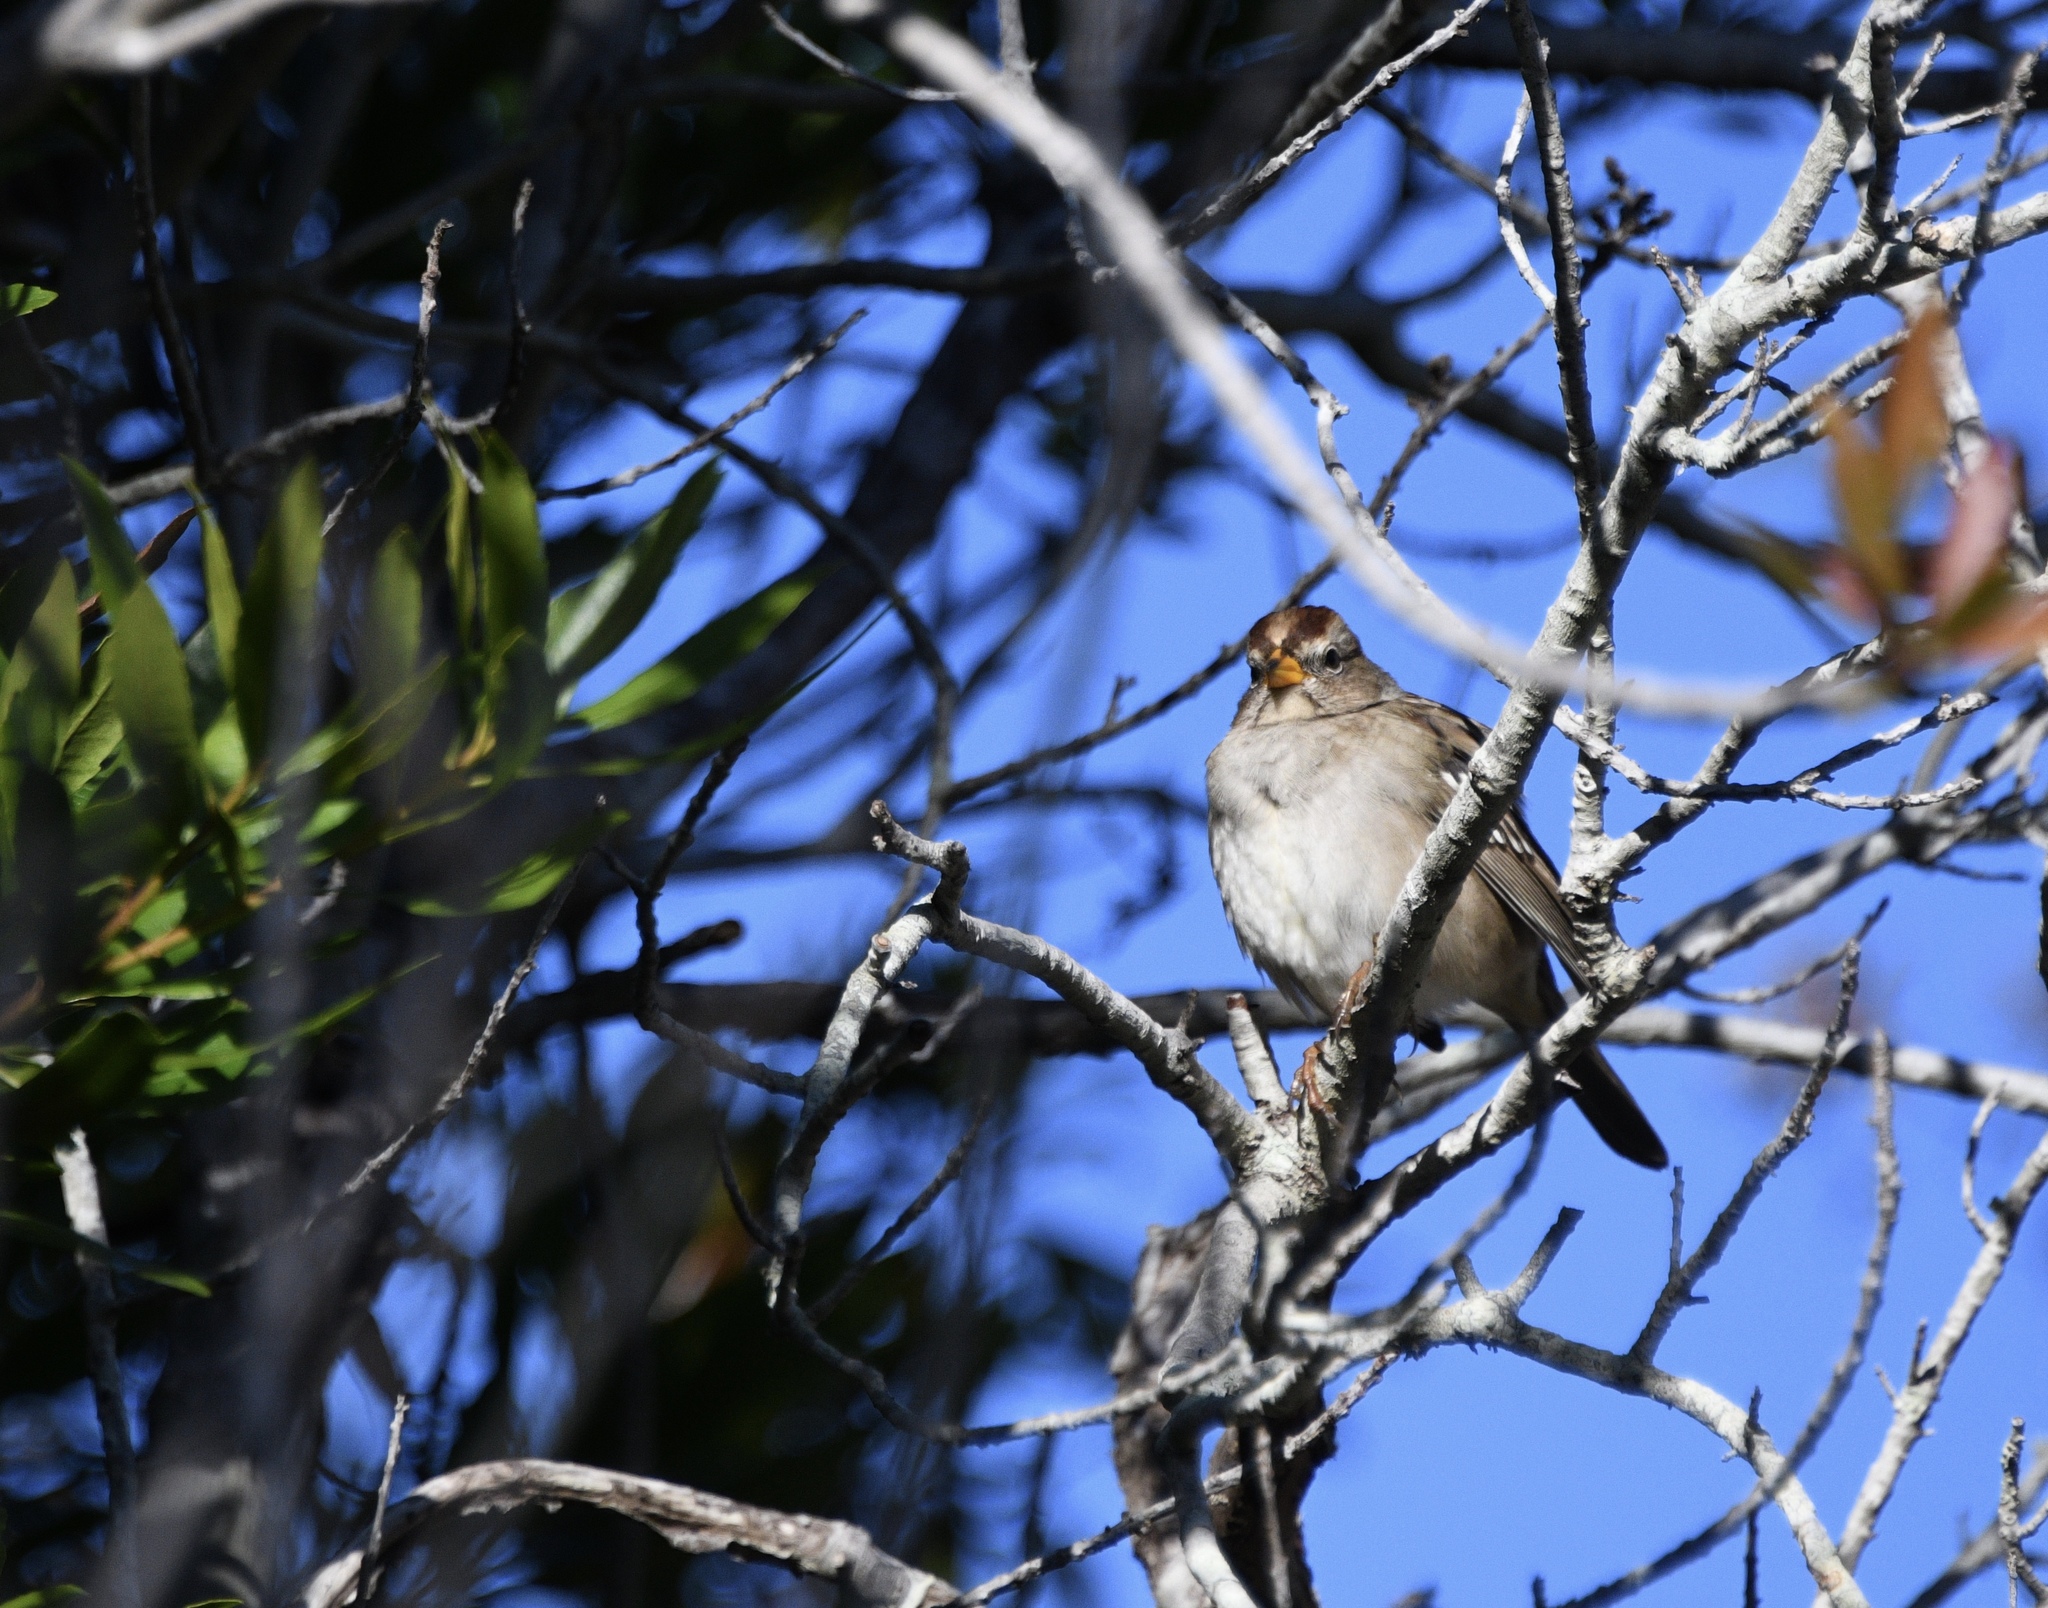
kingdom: Animalia
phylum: Chordata
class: Aves
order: Passeriformes
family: Passerellidae
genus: Zonotrichia
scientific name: Zonotrichia leucophrys
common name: White-crowned sparrow
